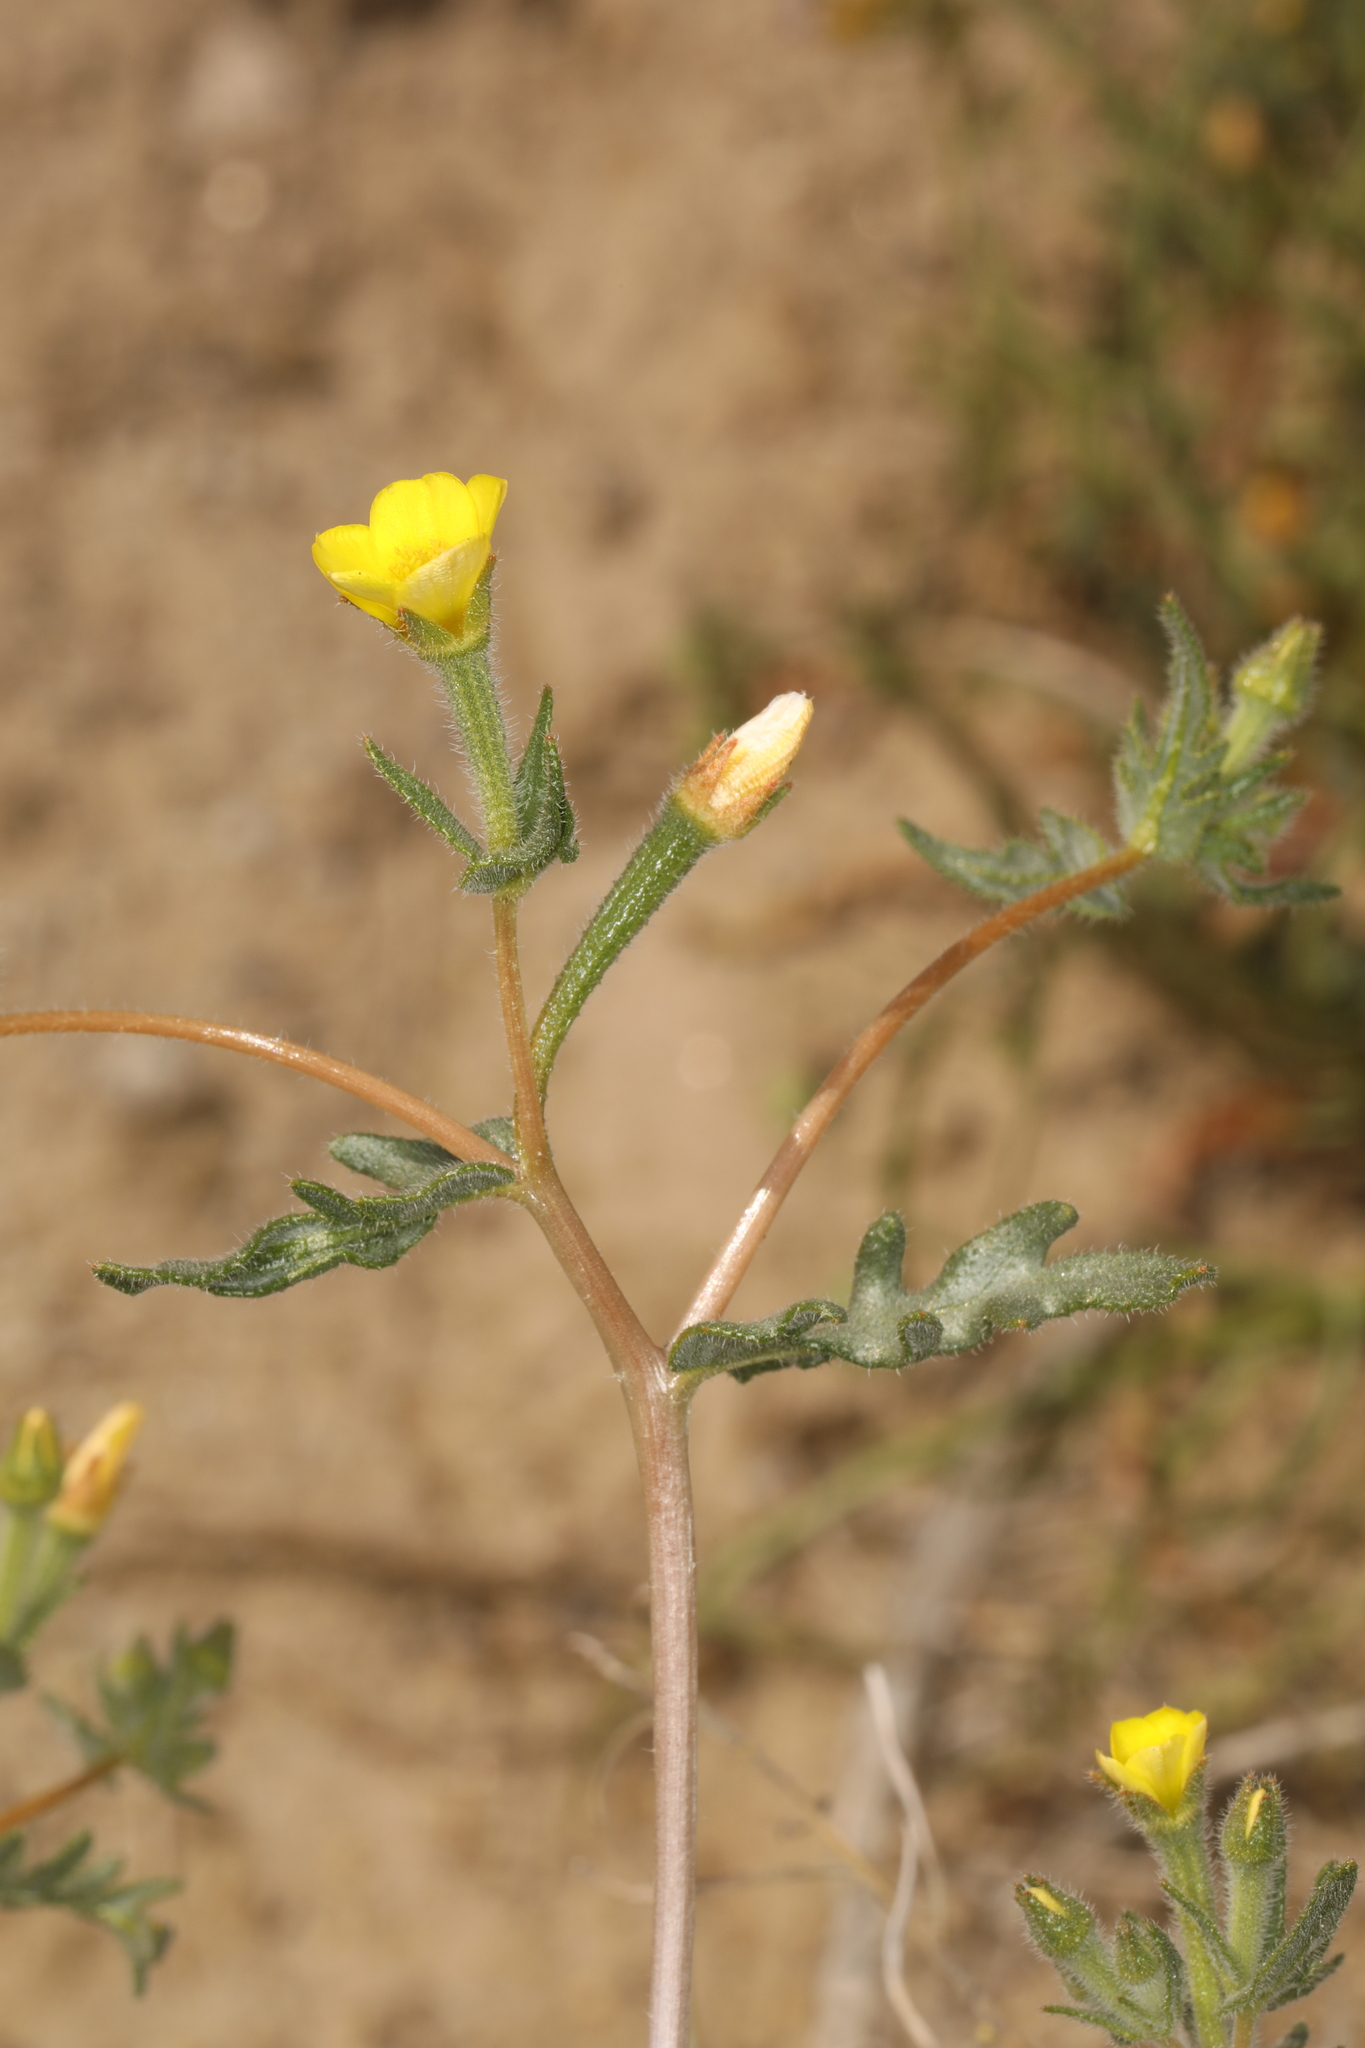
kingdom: Plantae
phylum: Tracheophyta
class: Magnoliopsida
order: Cornales
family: Loasaceae
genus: Mentzelia
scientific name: Mentzelia albicaulis
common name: White-stem blazingstar
